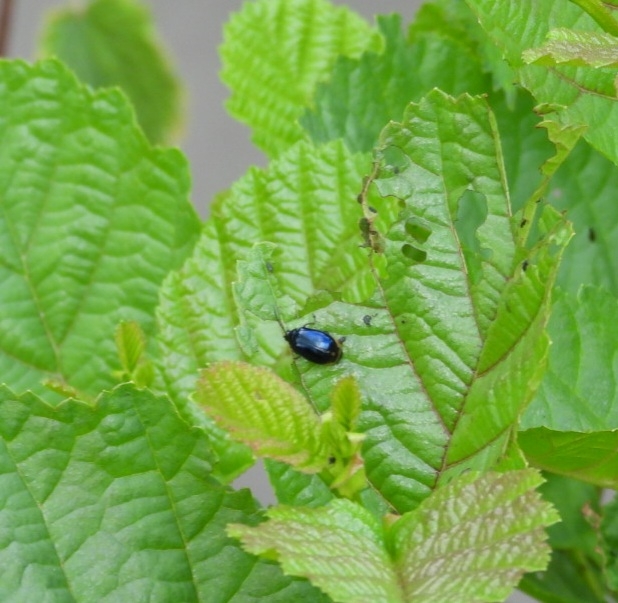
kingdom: Animalia
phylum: Arthropoda
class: Insecta
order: Coleoptera
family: Chrysomelidae
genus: Agelastica
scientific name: Agelastica alni
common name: Alder leaf beetle
